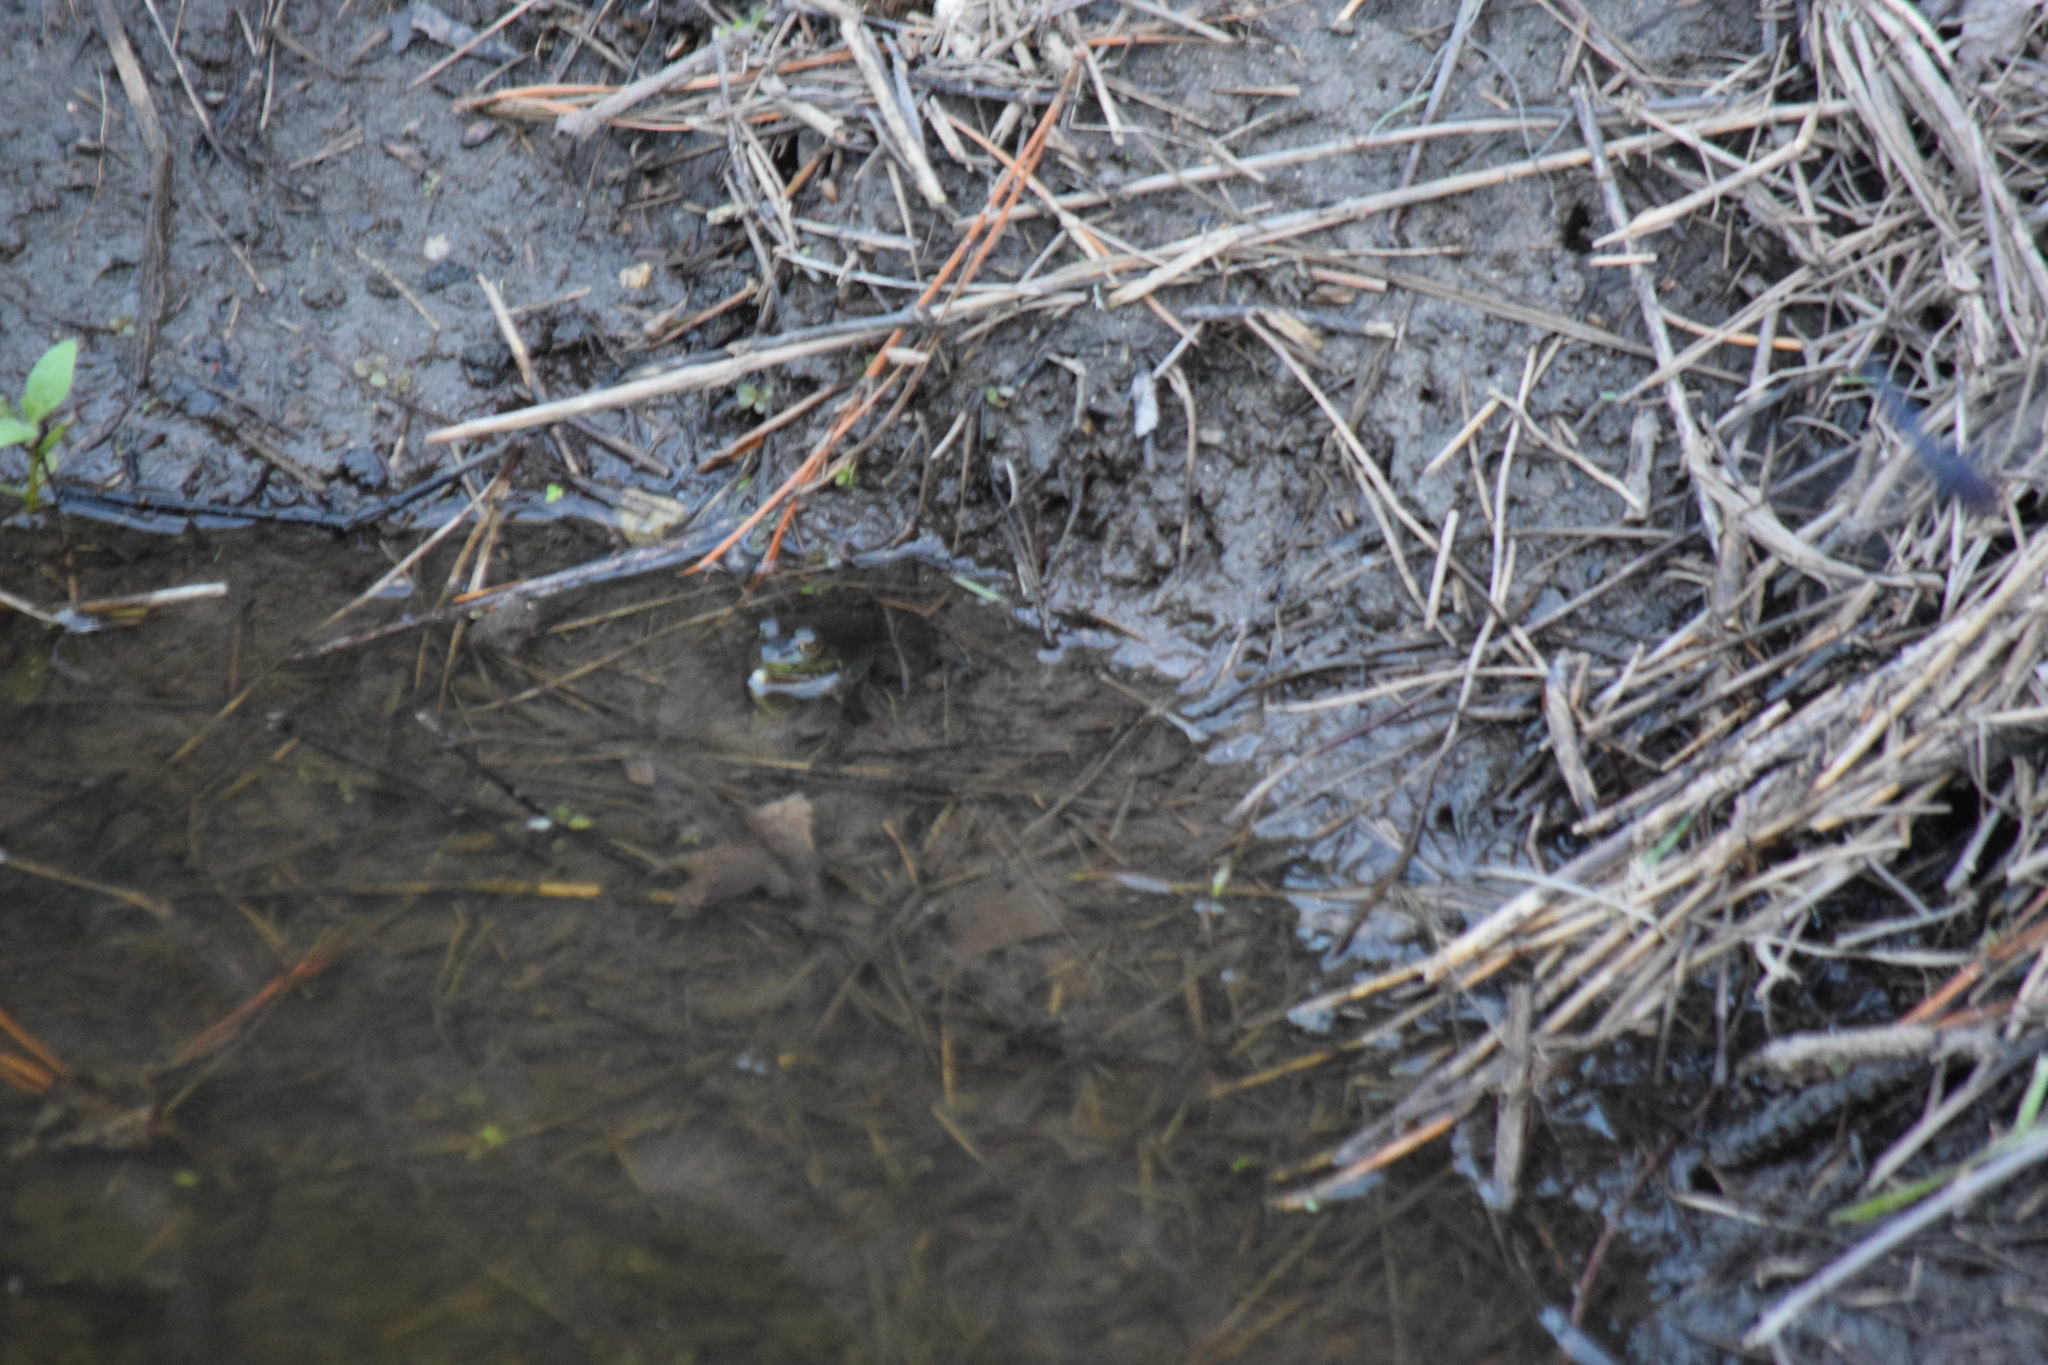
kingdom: Animalia
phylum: Chordata
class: Amphibia
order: Anura
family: Ranidae
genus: Lithobates
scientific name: Lithobates catesbeianus
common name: American bullfrog
